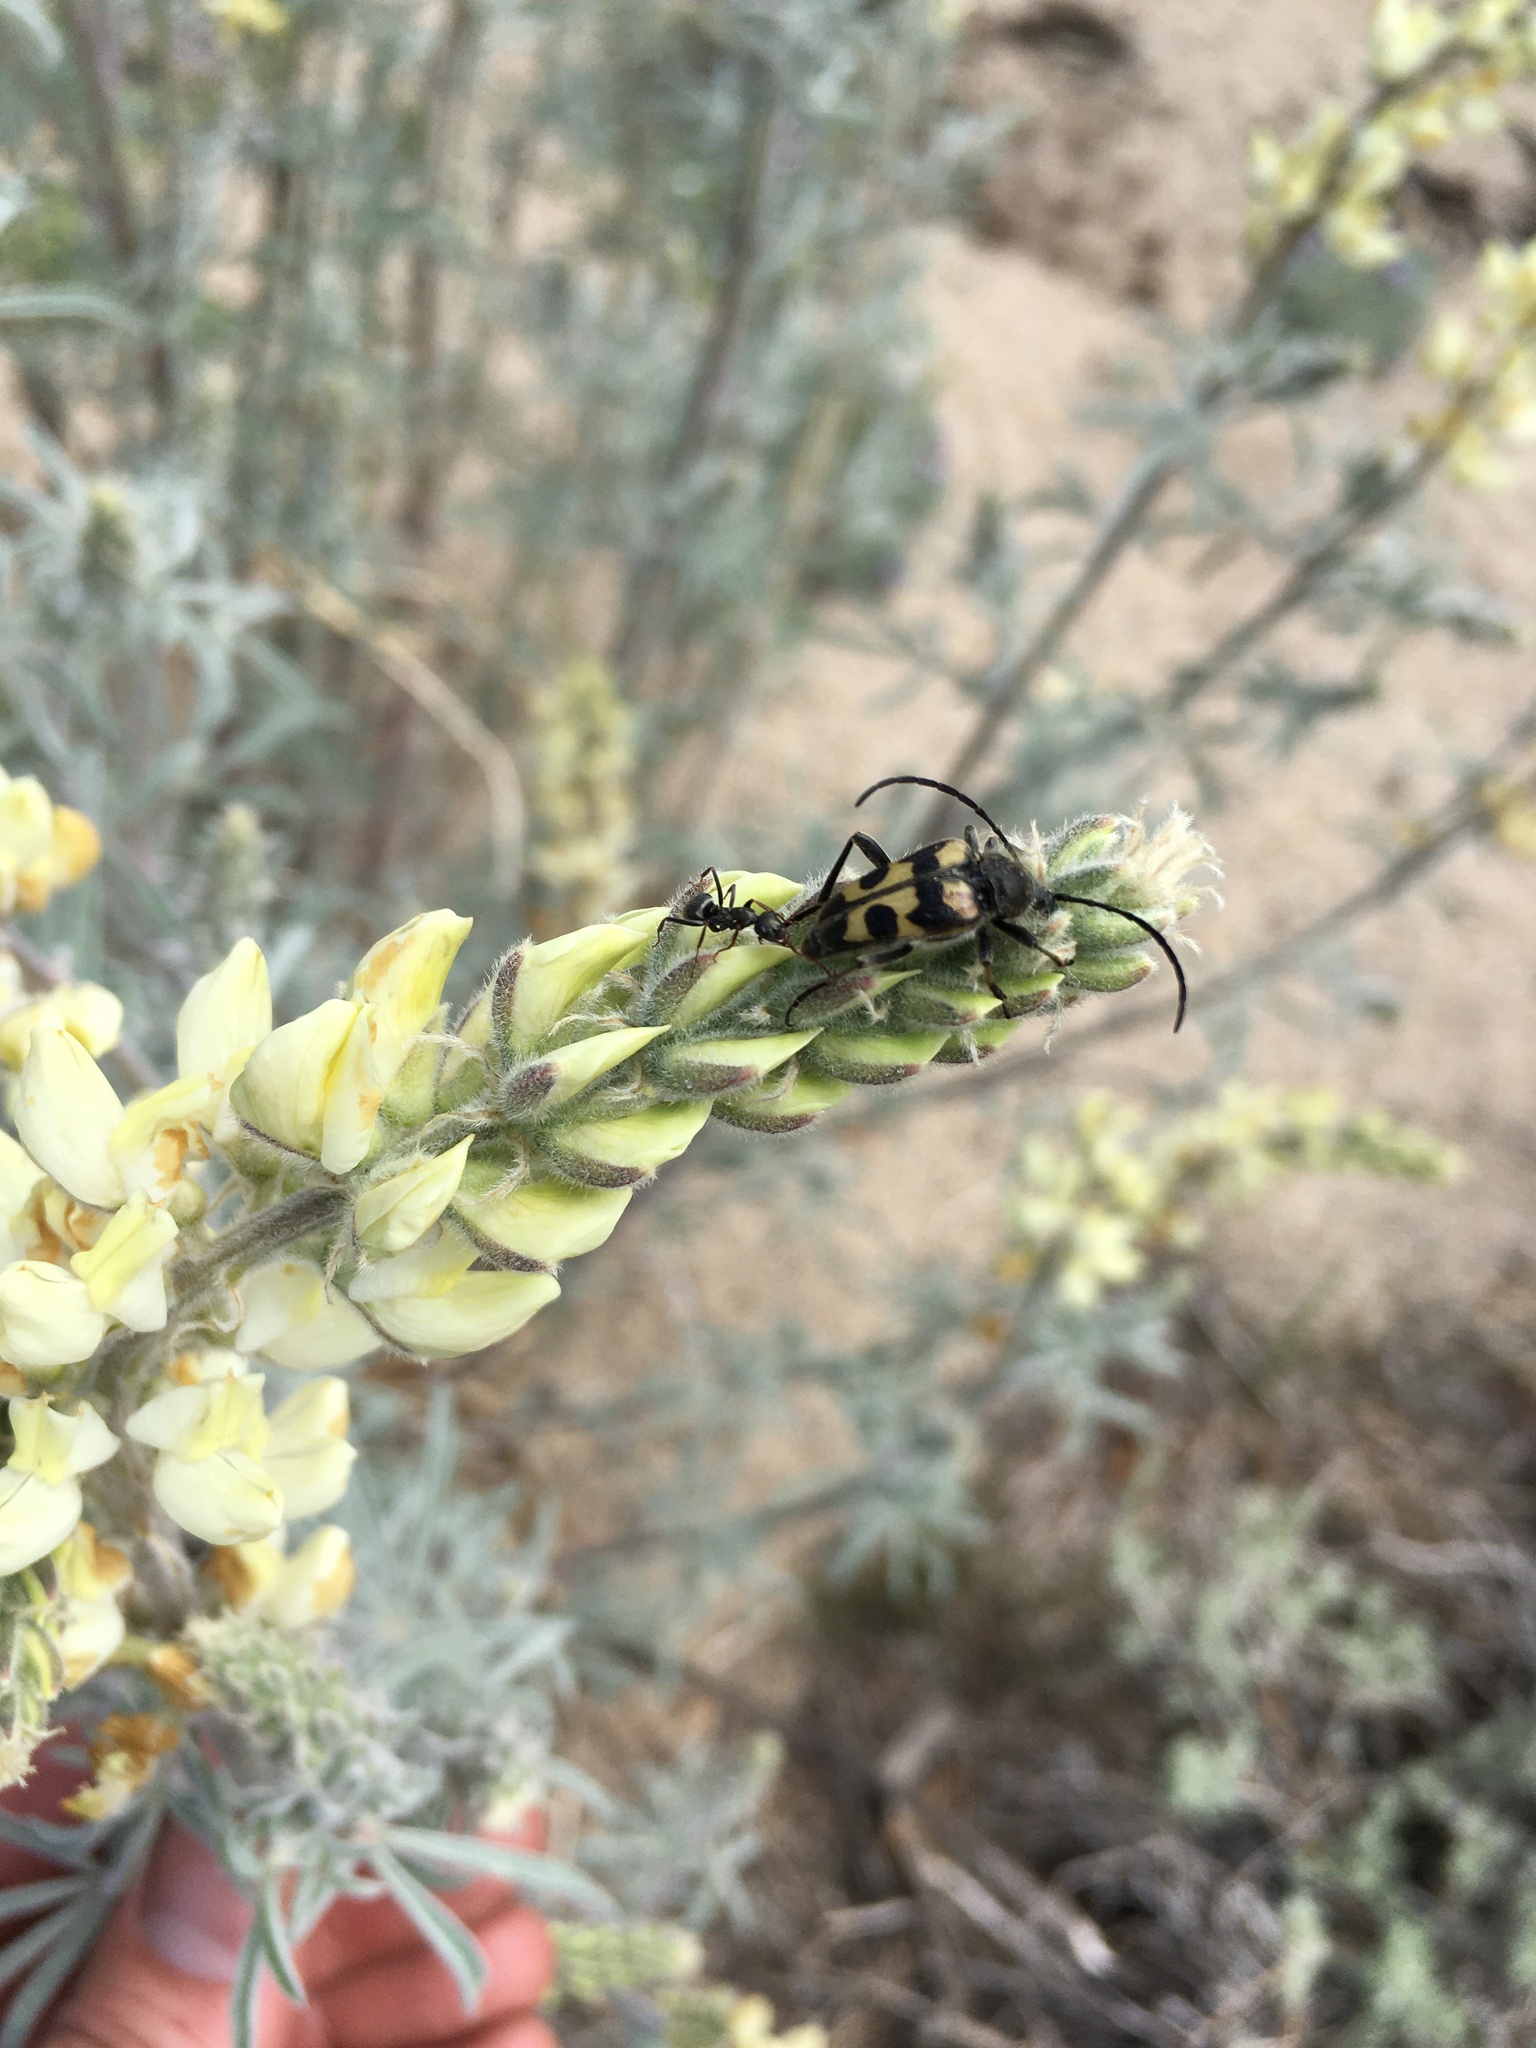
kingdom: Animalia
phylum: Arthropoda
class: Insecta
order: Coleoptera
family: Cerambycidae
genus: Judolia
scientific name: Judolia instabilis
